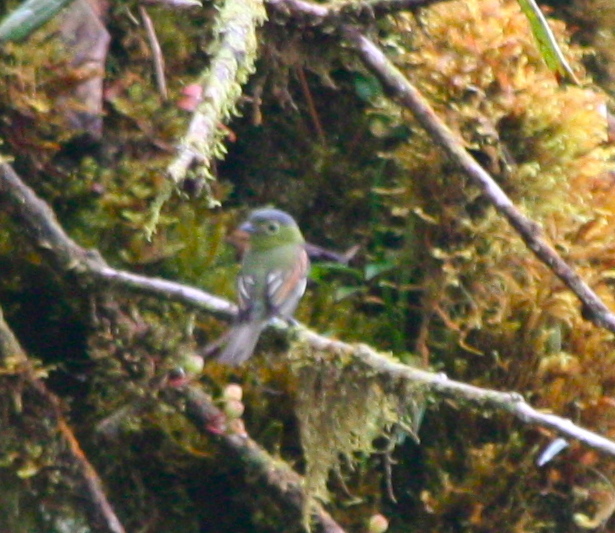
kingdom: Animalia
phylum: Chordata
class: Aves
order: Passeriformes
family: Cotingidae
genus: Pachyramphus
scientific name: Pachyramphus versicolor
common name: Barred becard
